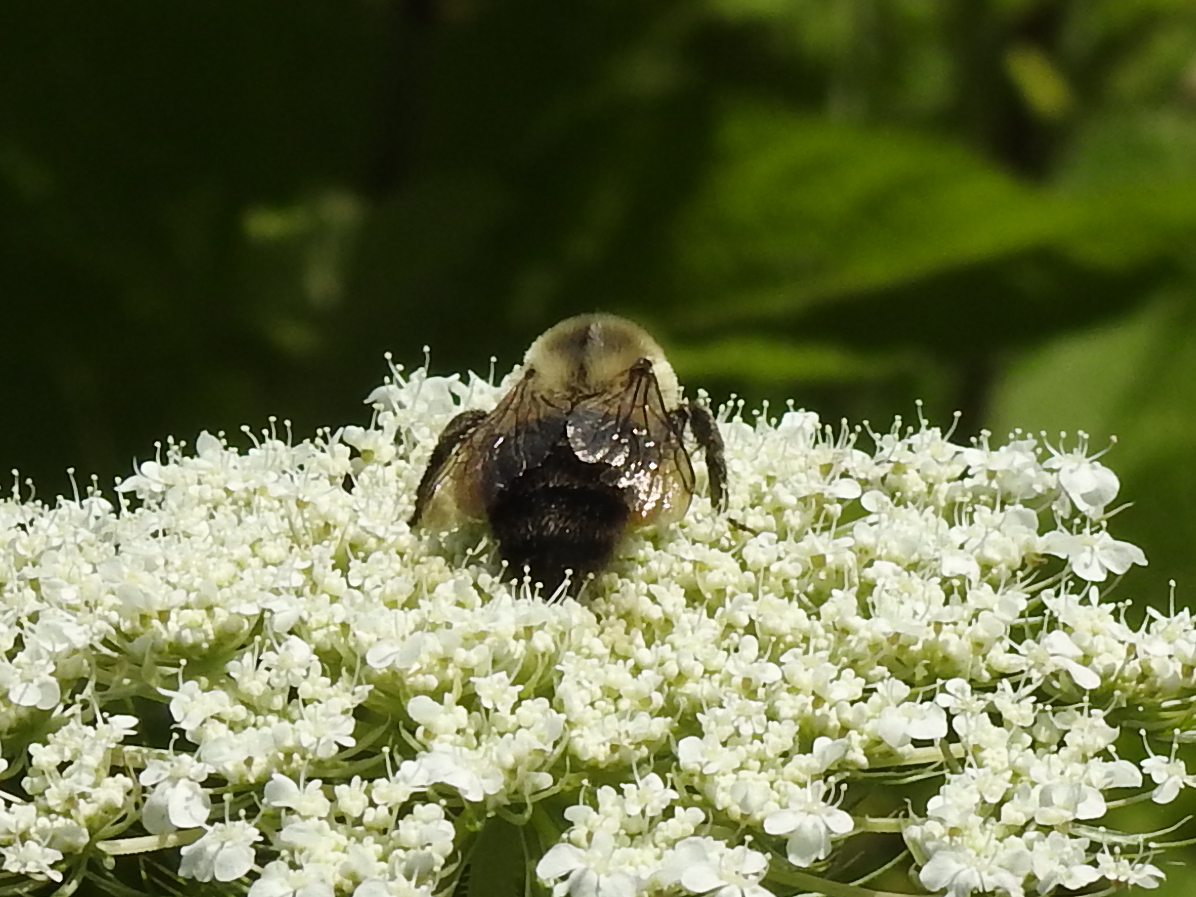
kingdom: Animalia
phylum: Arthropoda
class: Insecta
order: Hymenoptera
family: Apidae
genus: Bombus
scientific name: Bombus impatiens
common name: Common eastern bumble bee
